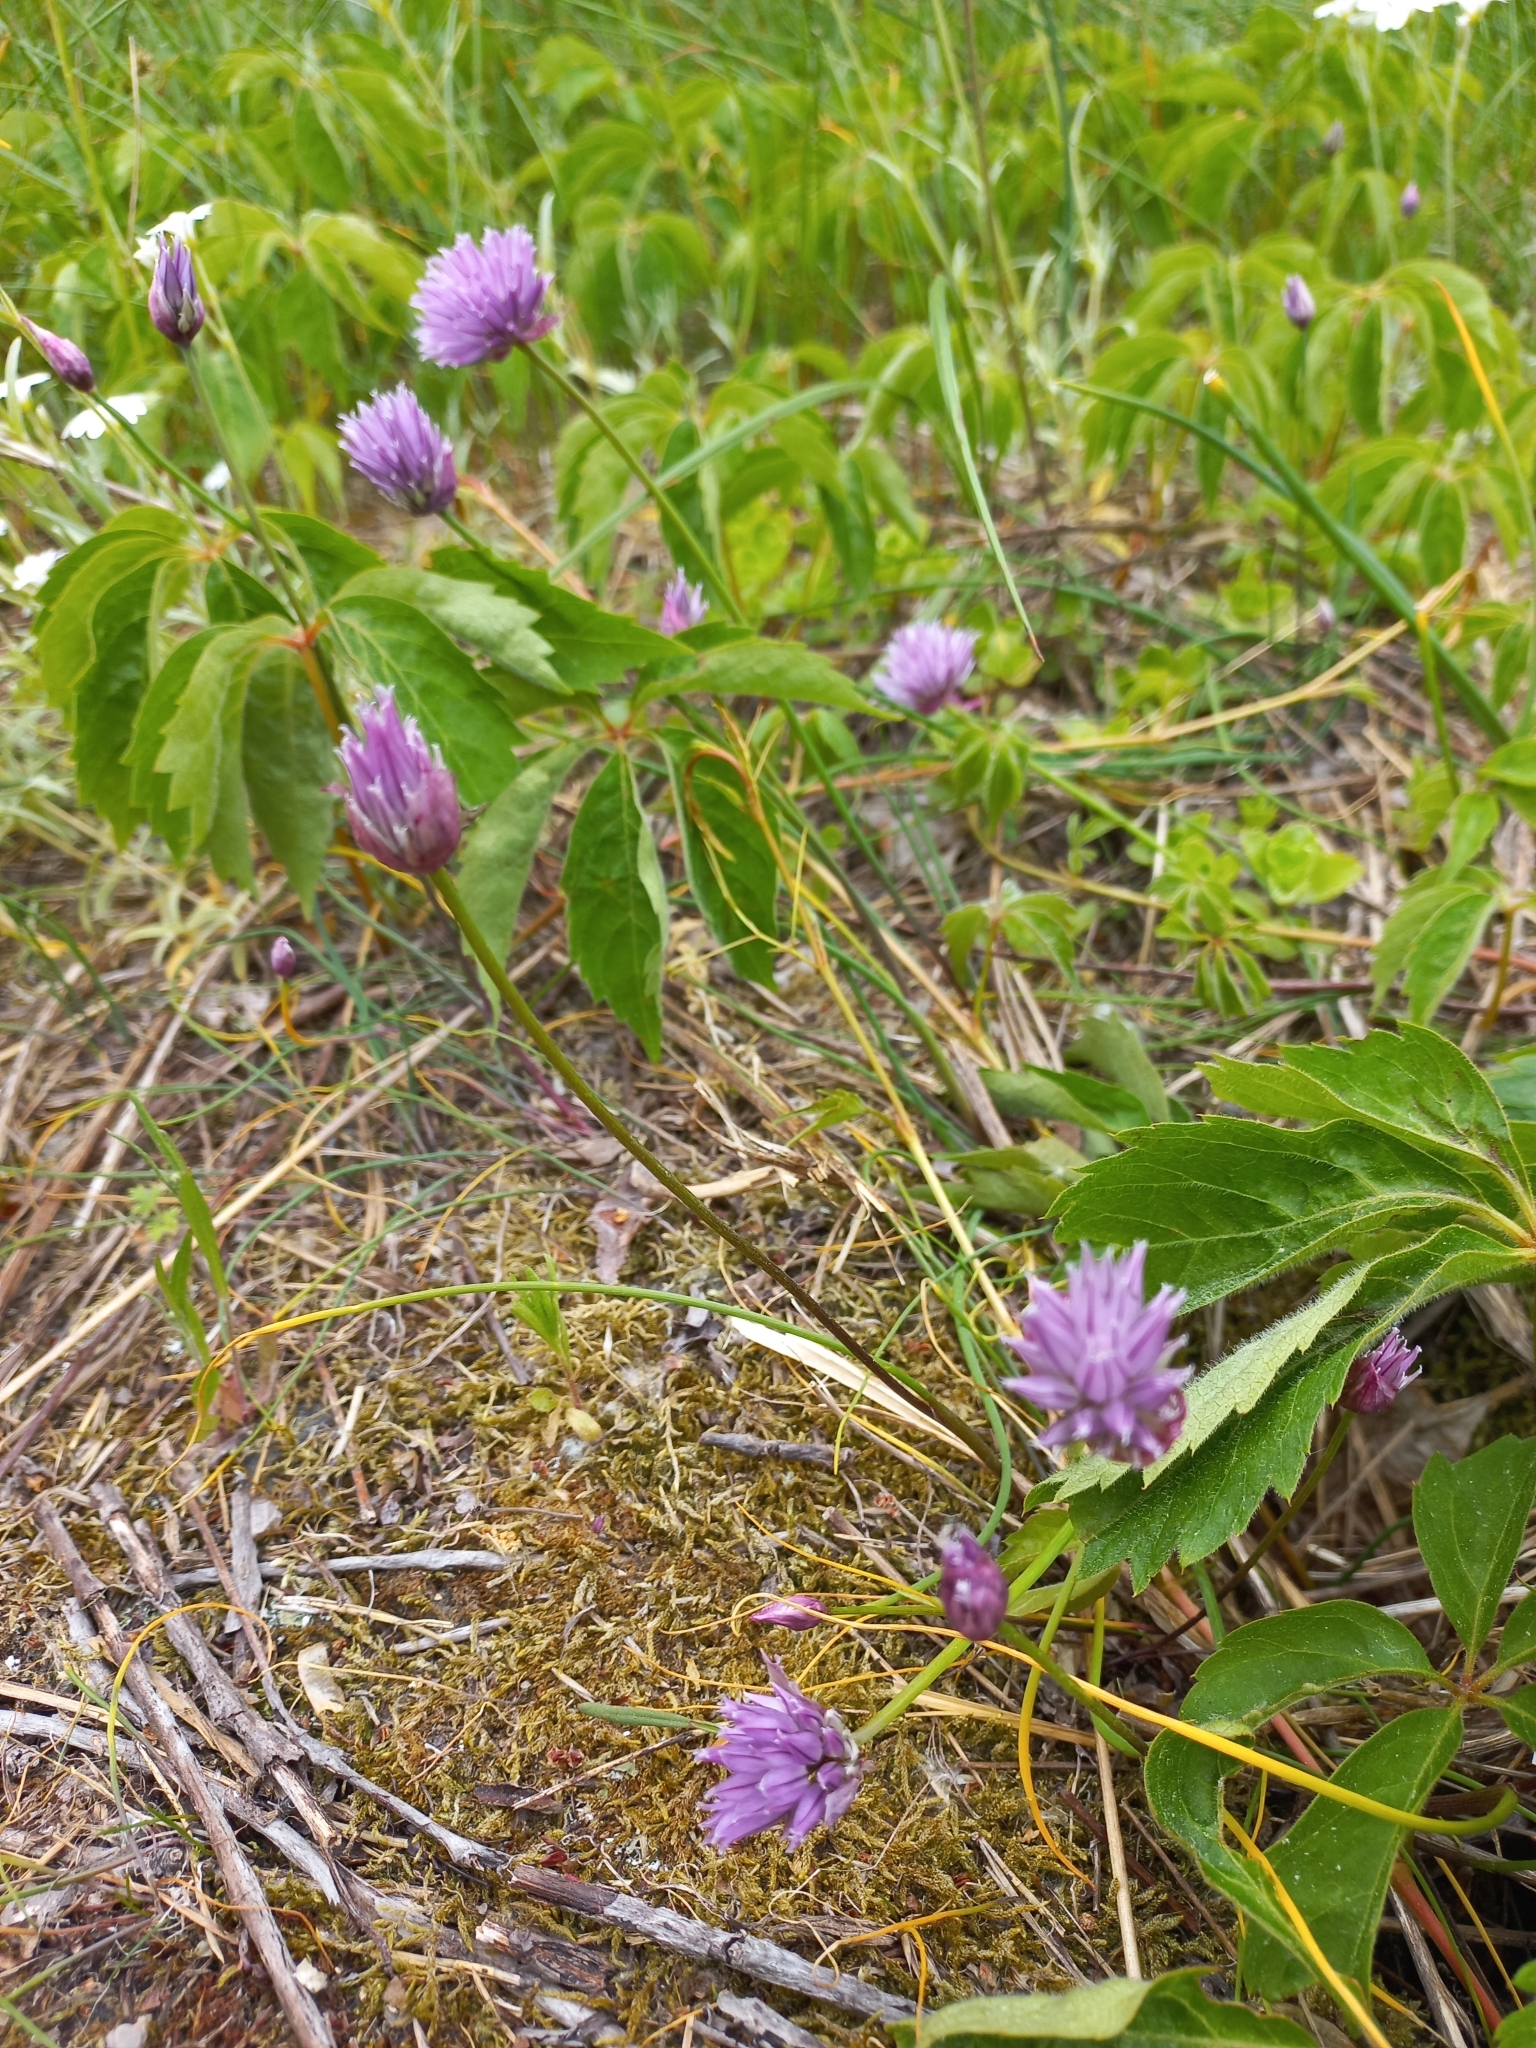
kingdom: Plantae
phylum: Tracheophyta
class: Liliopsida
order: Asparagales
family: Amaryllidaceae
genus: Allium
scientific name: Allium schoenoprasum
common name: Chives
